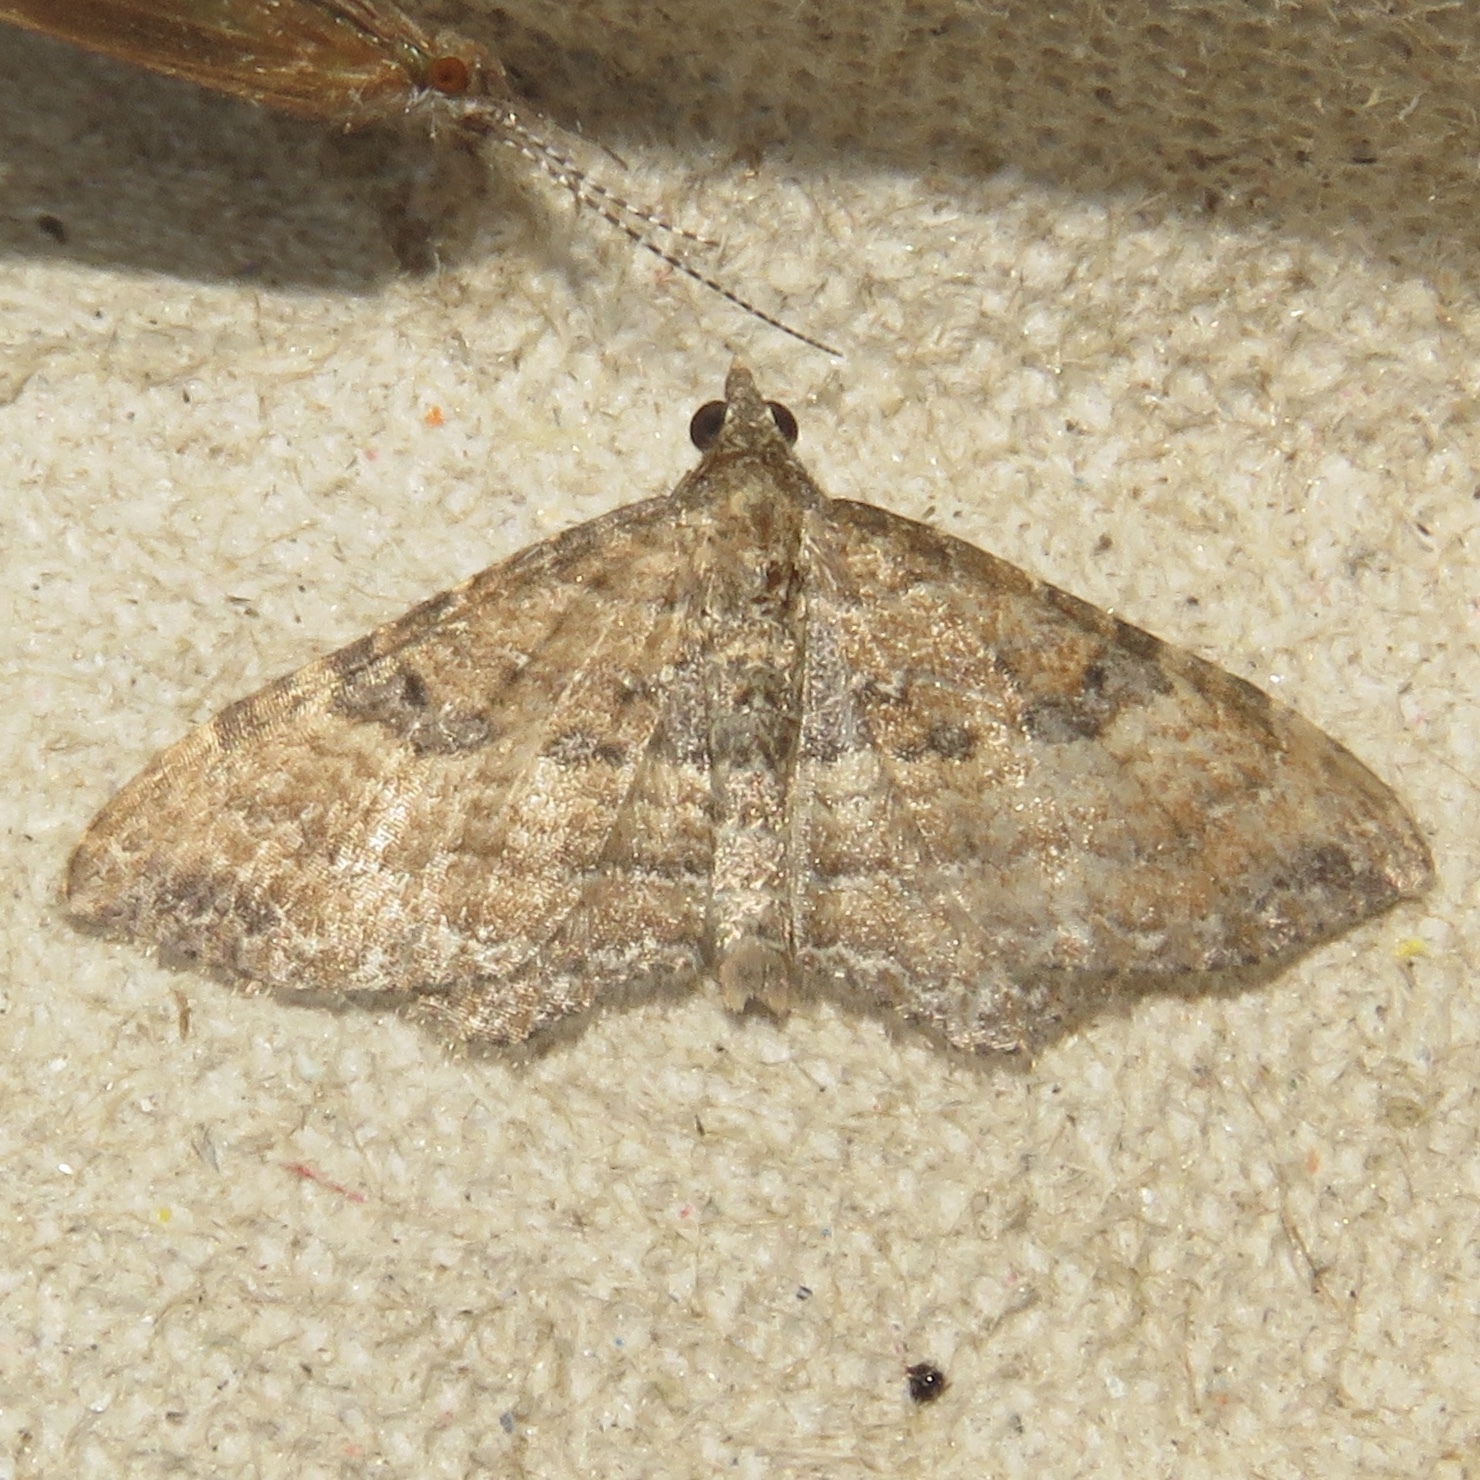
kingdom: Animalia
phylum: Arthropoda
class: Insecta
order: Lepidoptera
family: Geometridae
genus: Orthonama
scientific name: Orthonama obstipata
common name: The gem
